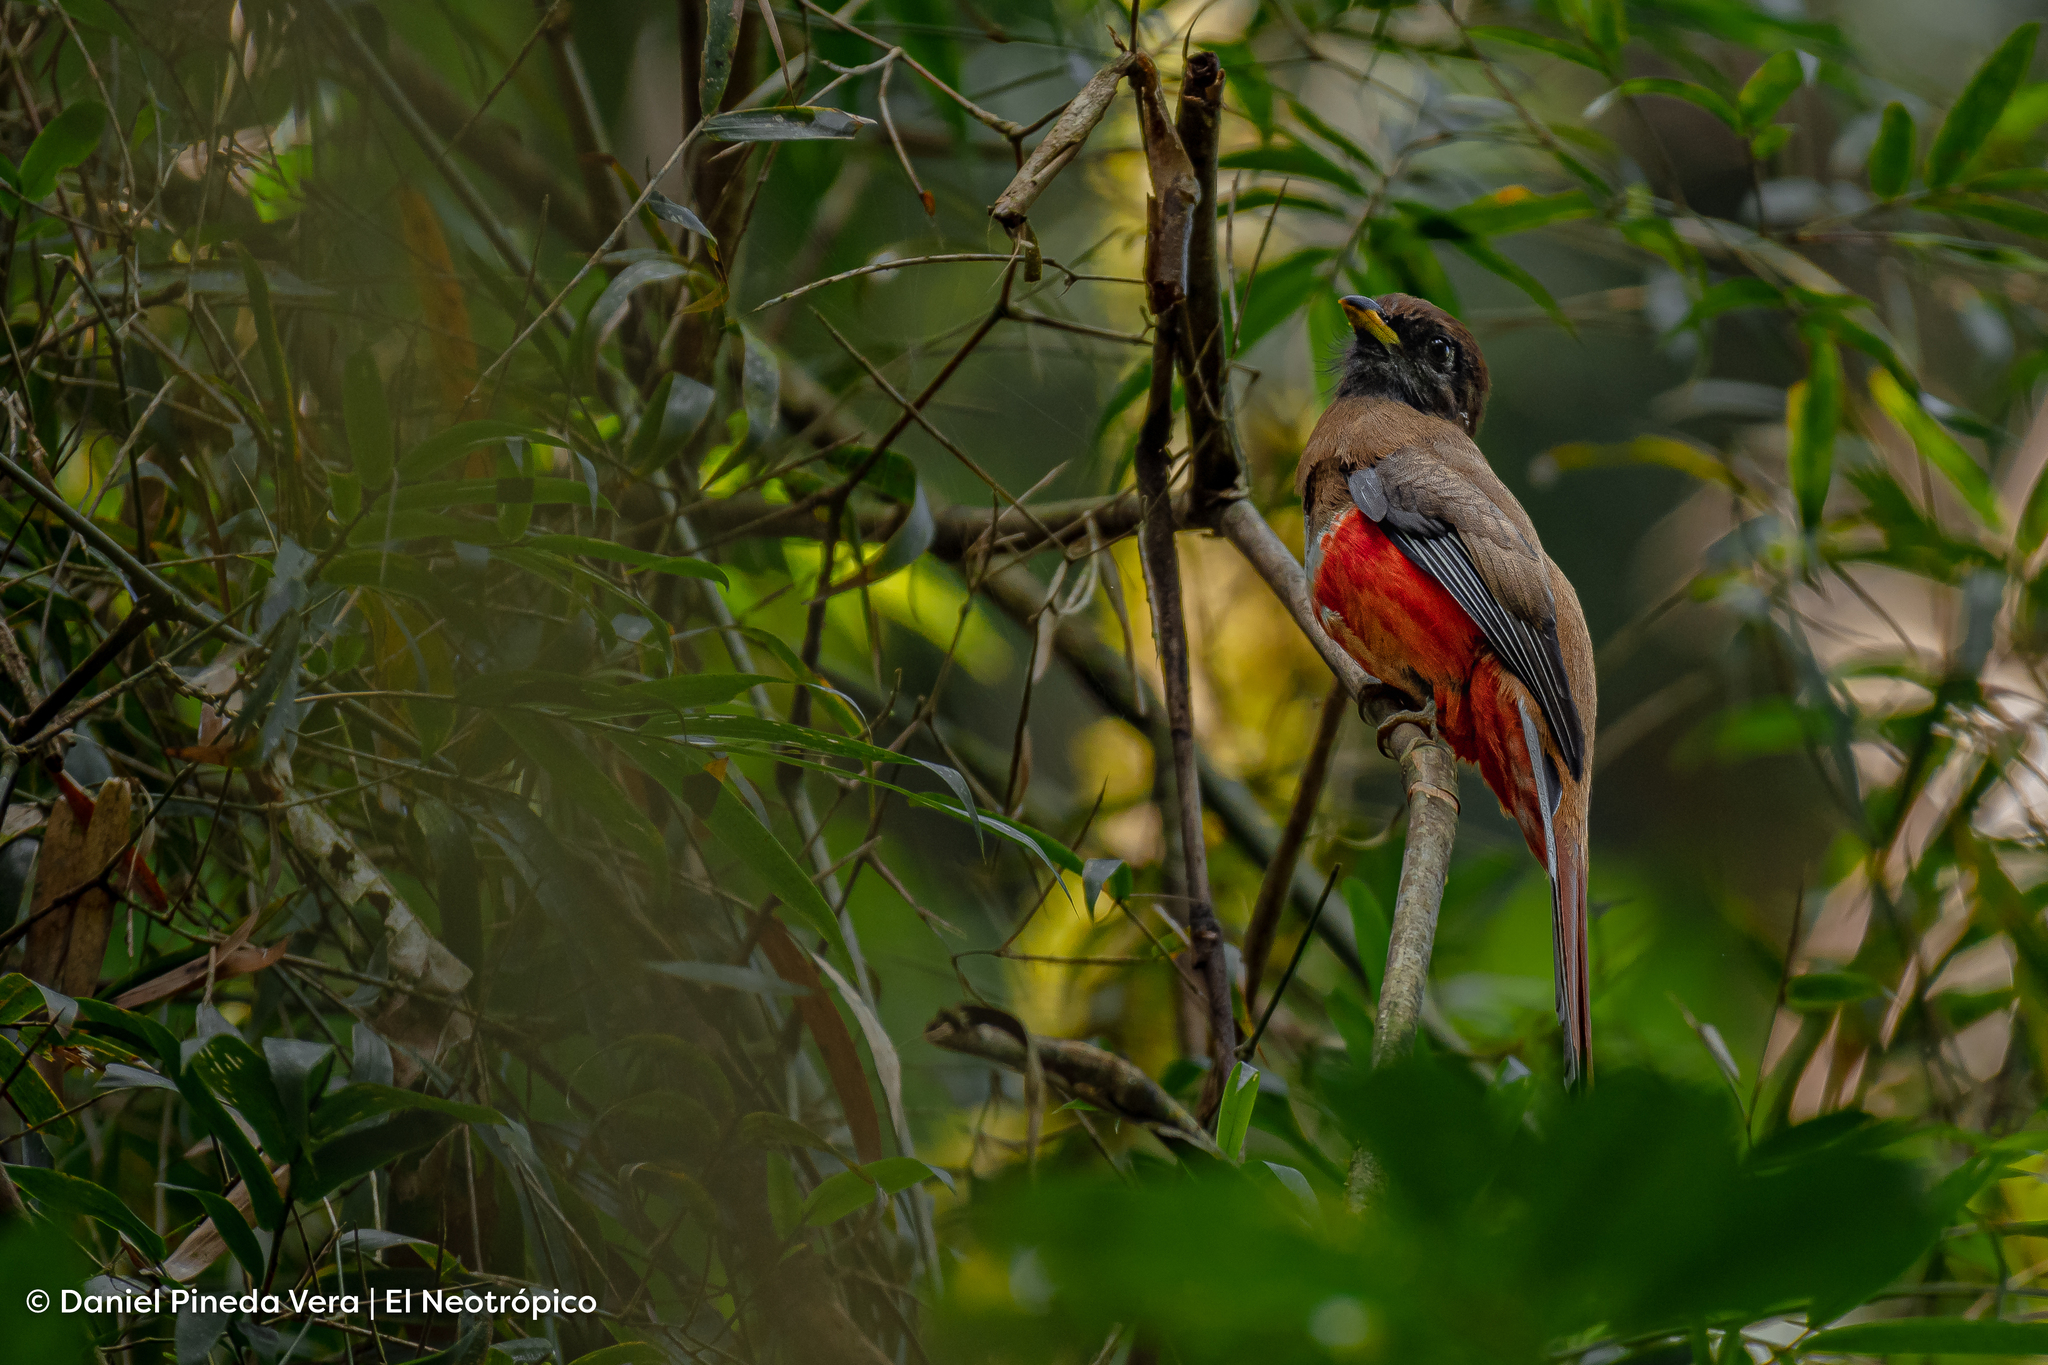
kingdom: Animalia
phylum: Chordata
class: Aves
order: Trogoniformes
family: Trogonidae
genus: Trogon
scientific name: Trogon collaris
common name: Collared trogon
